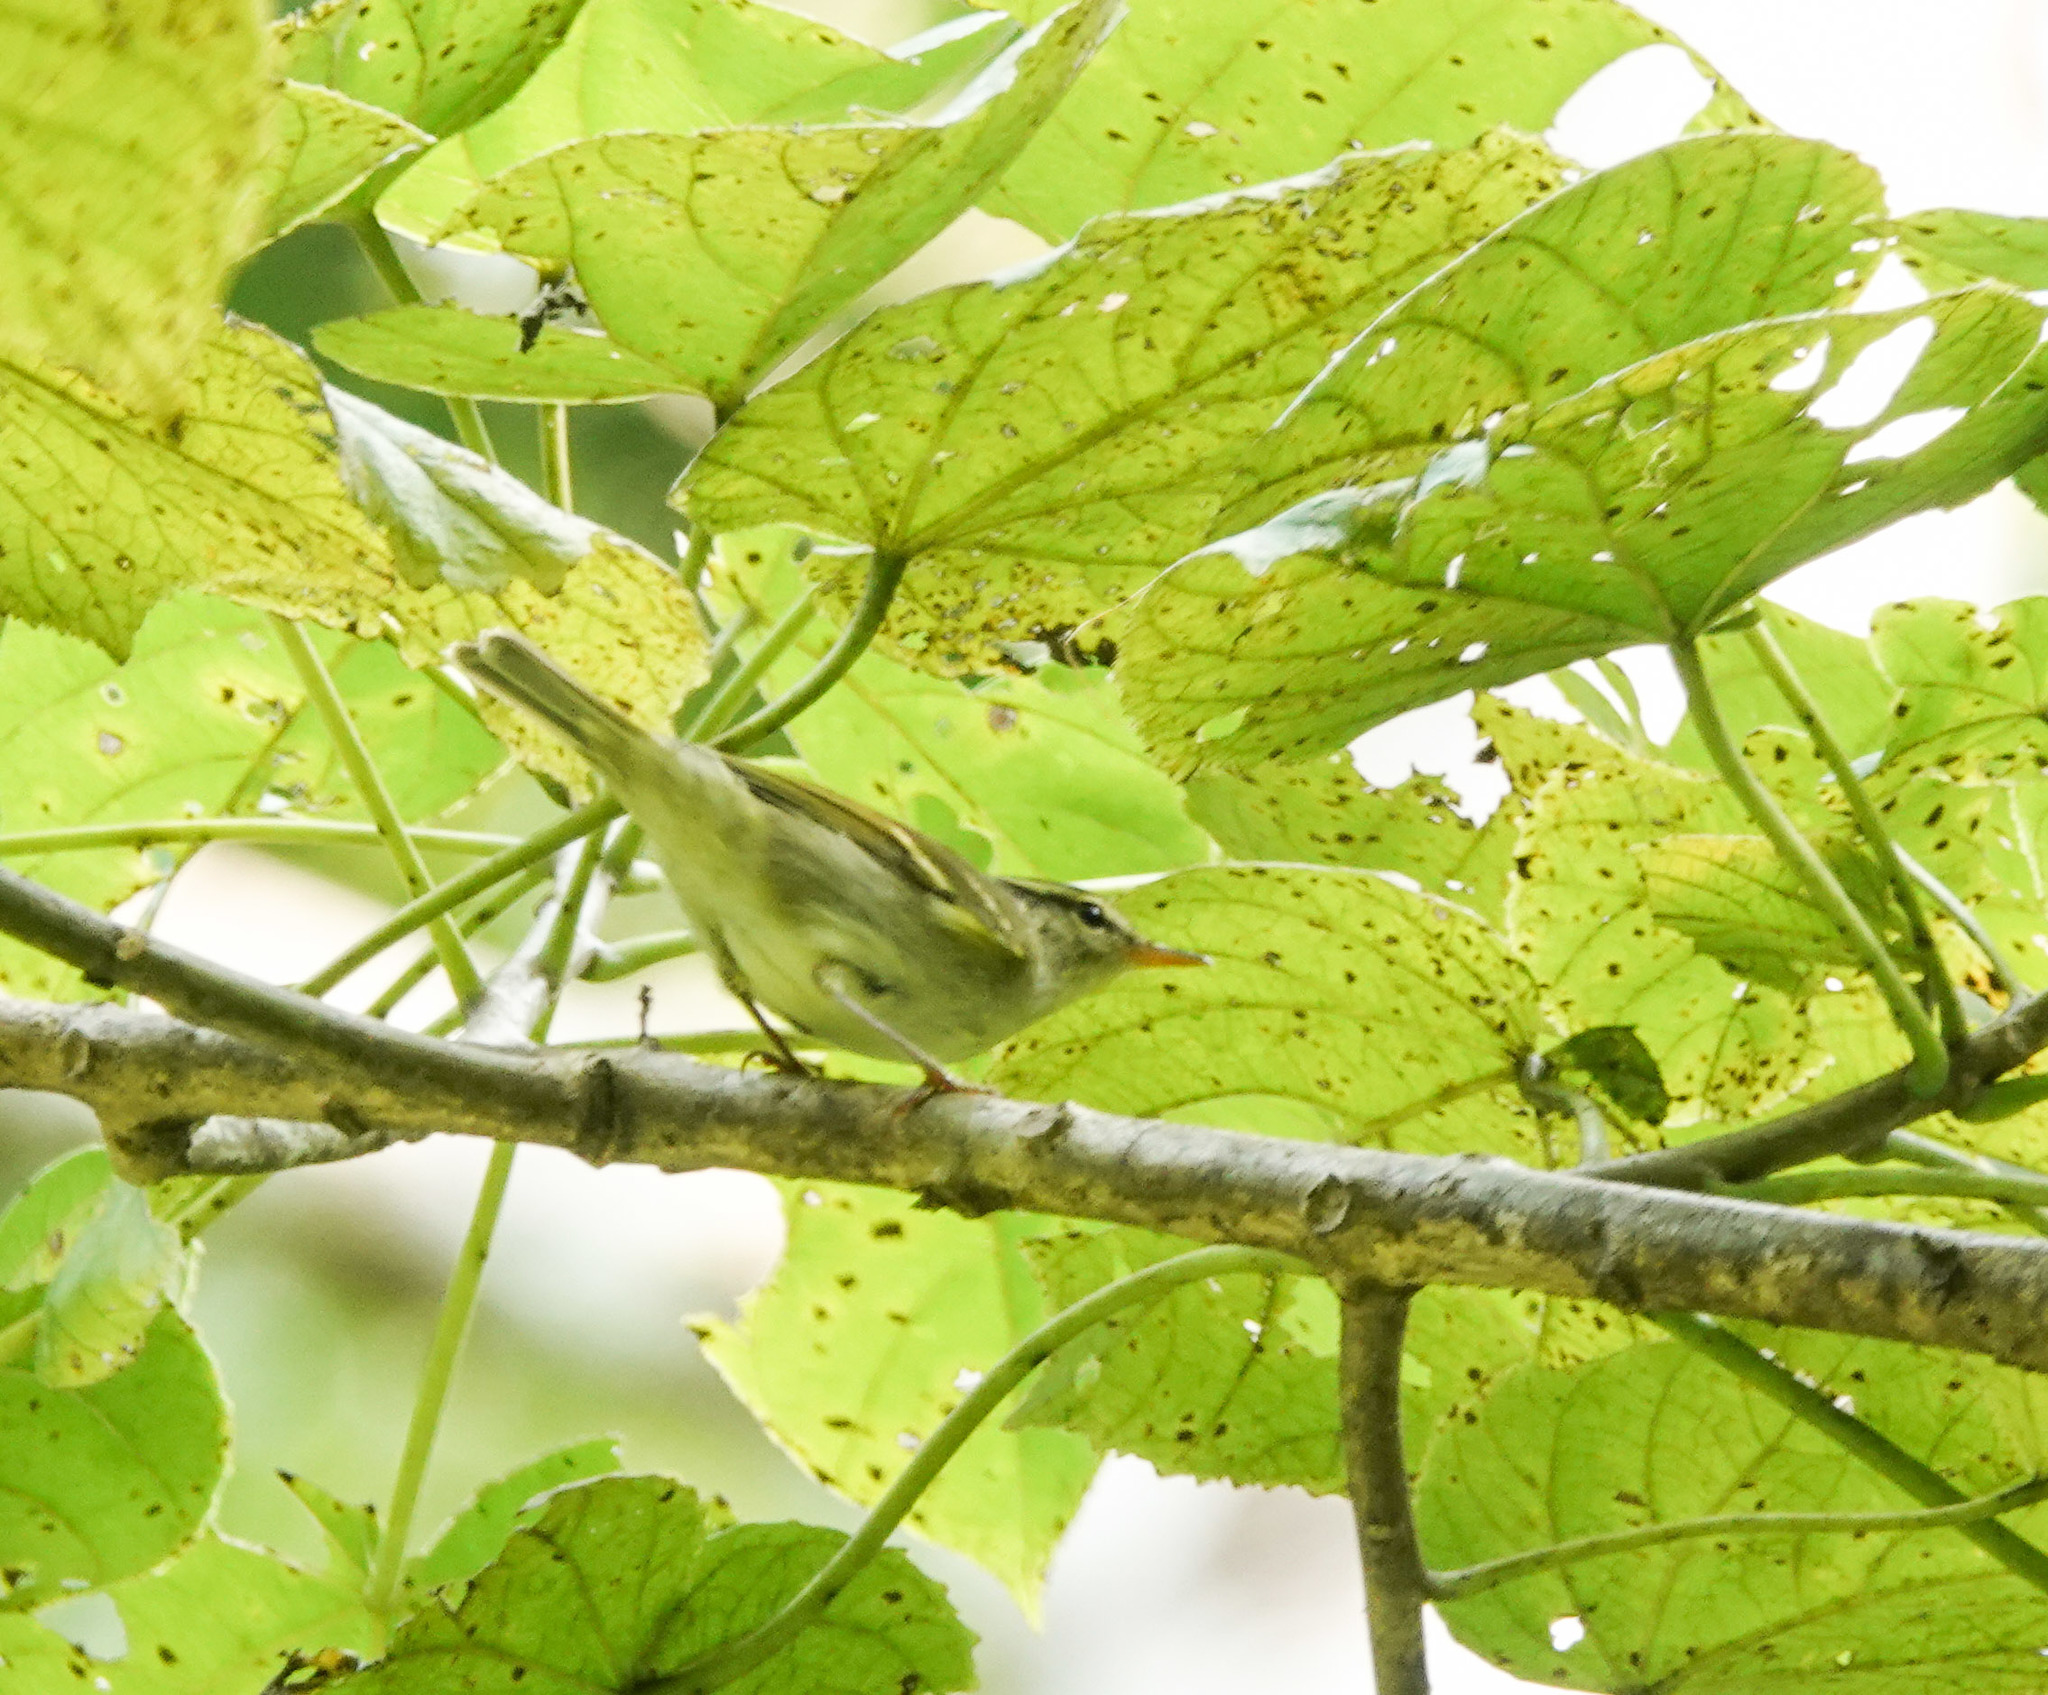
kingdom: Animalia
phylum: Chordata
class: Aves
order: Passeriformes
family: Phylloscopidae
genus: Phylloscopus
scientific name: Phylloscopus reguloides
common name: Blyth's leaf warbler
